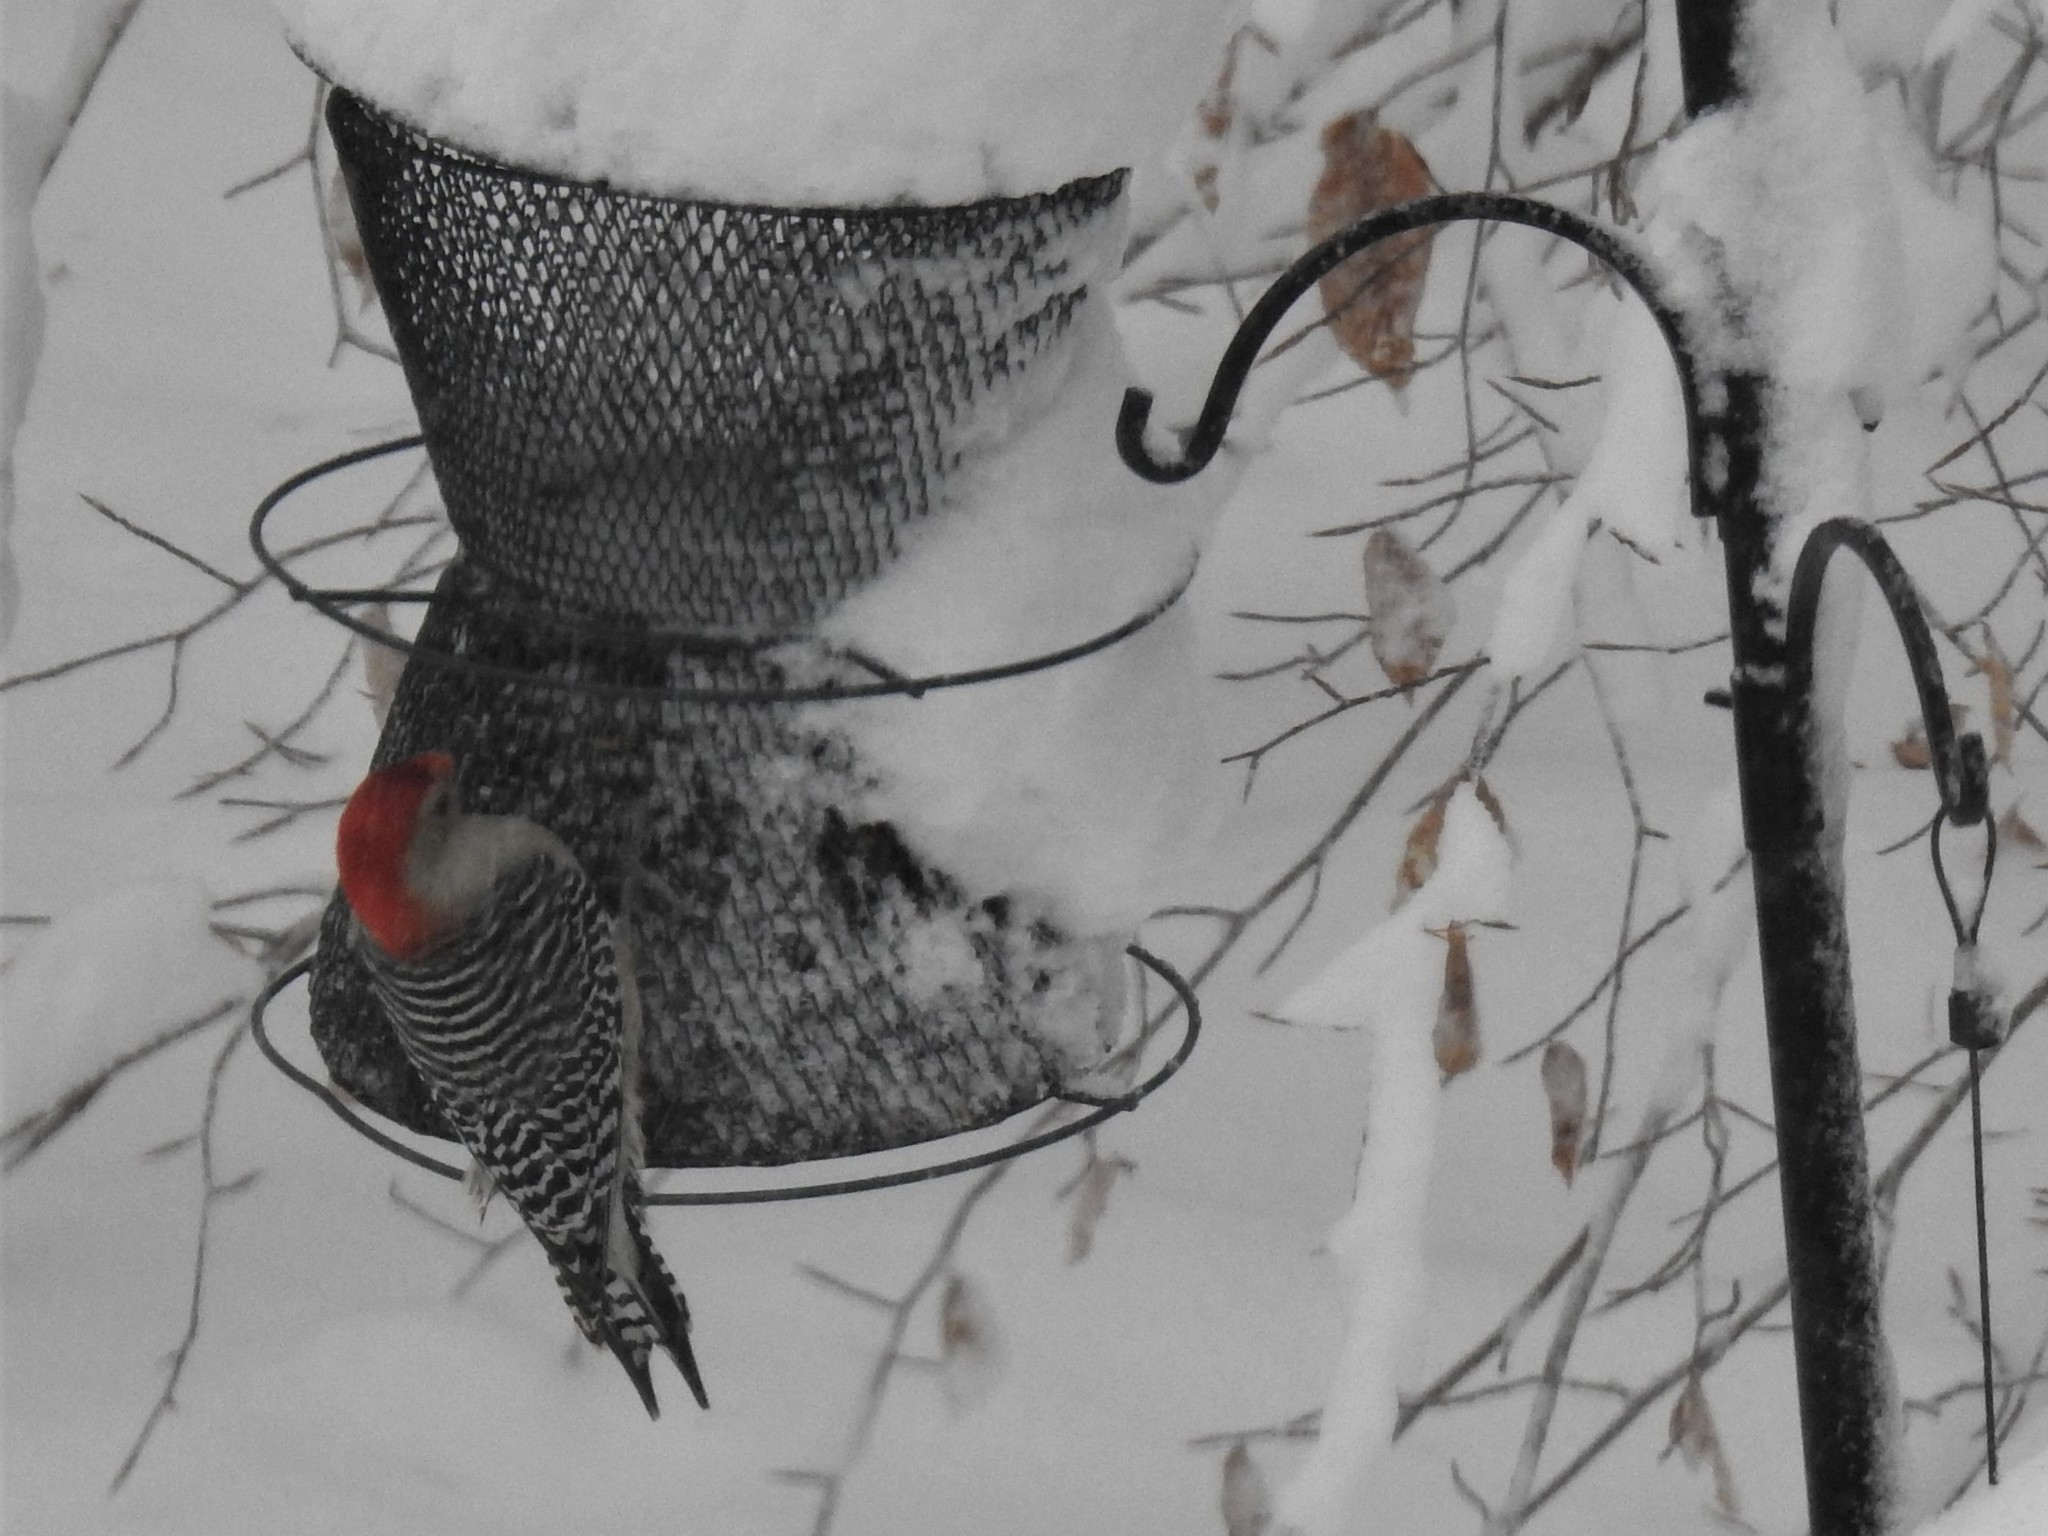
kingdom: Animalia
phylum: Chordata
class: Aves
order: Piciformes
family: Picidae
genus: Melanerpes
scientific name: Melanerpes carolinus
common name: Red-bellied woodpecker
